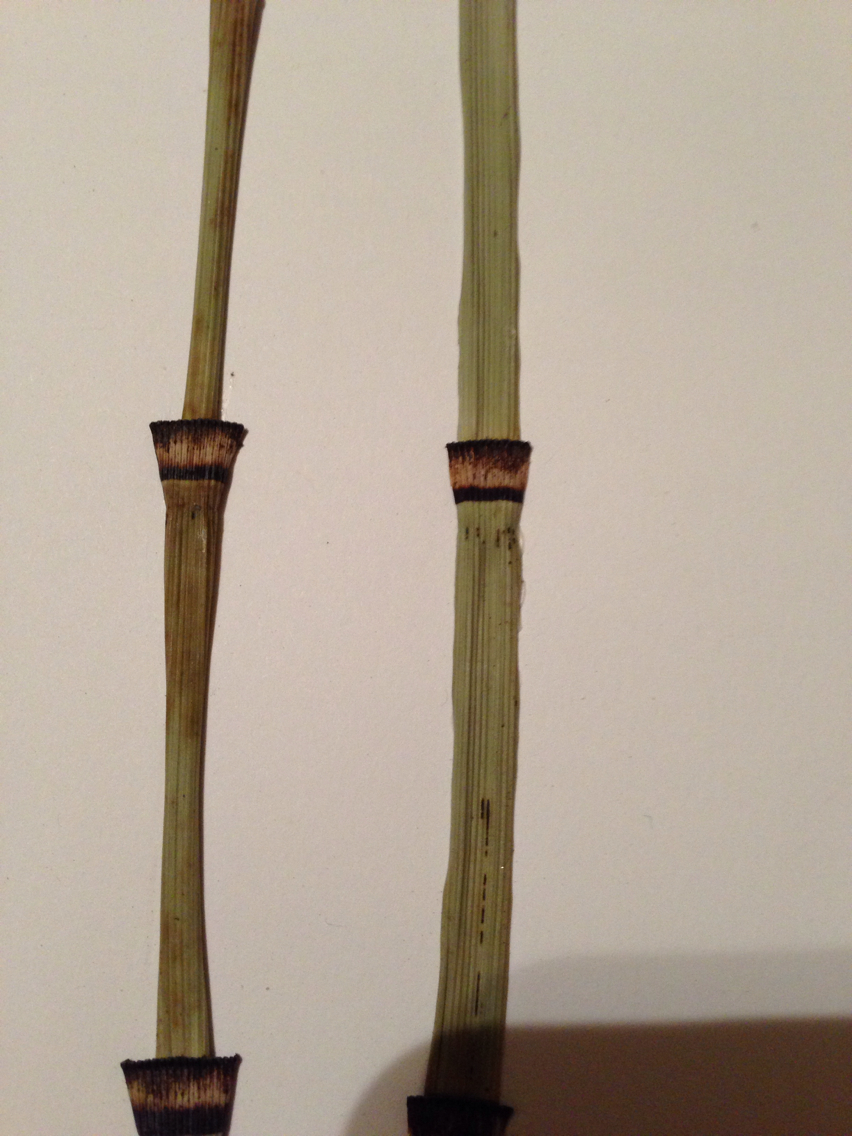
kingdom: Plantae
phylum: Tracheophyta
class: Polypodiopsida
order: Equisetales
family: Equisetaceae
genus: Equisetum
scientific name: Equisetum praealtum
